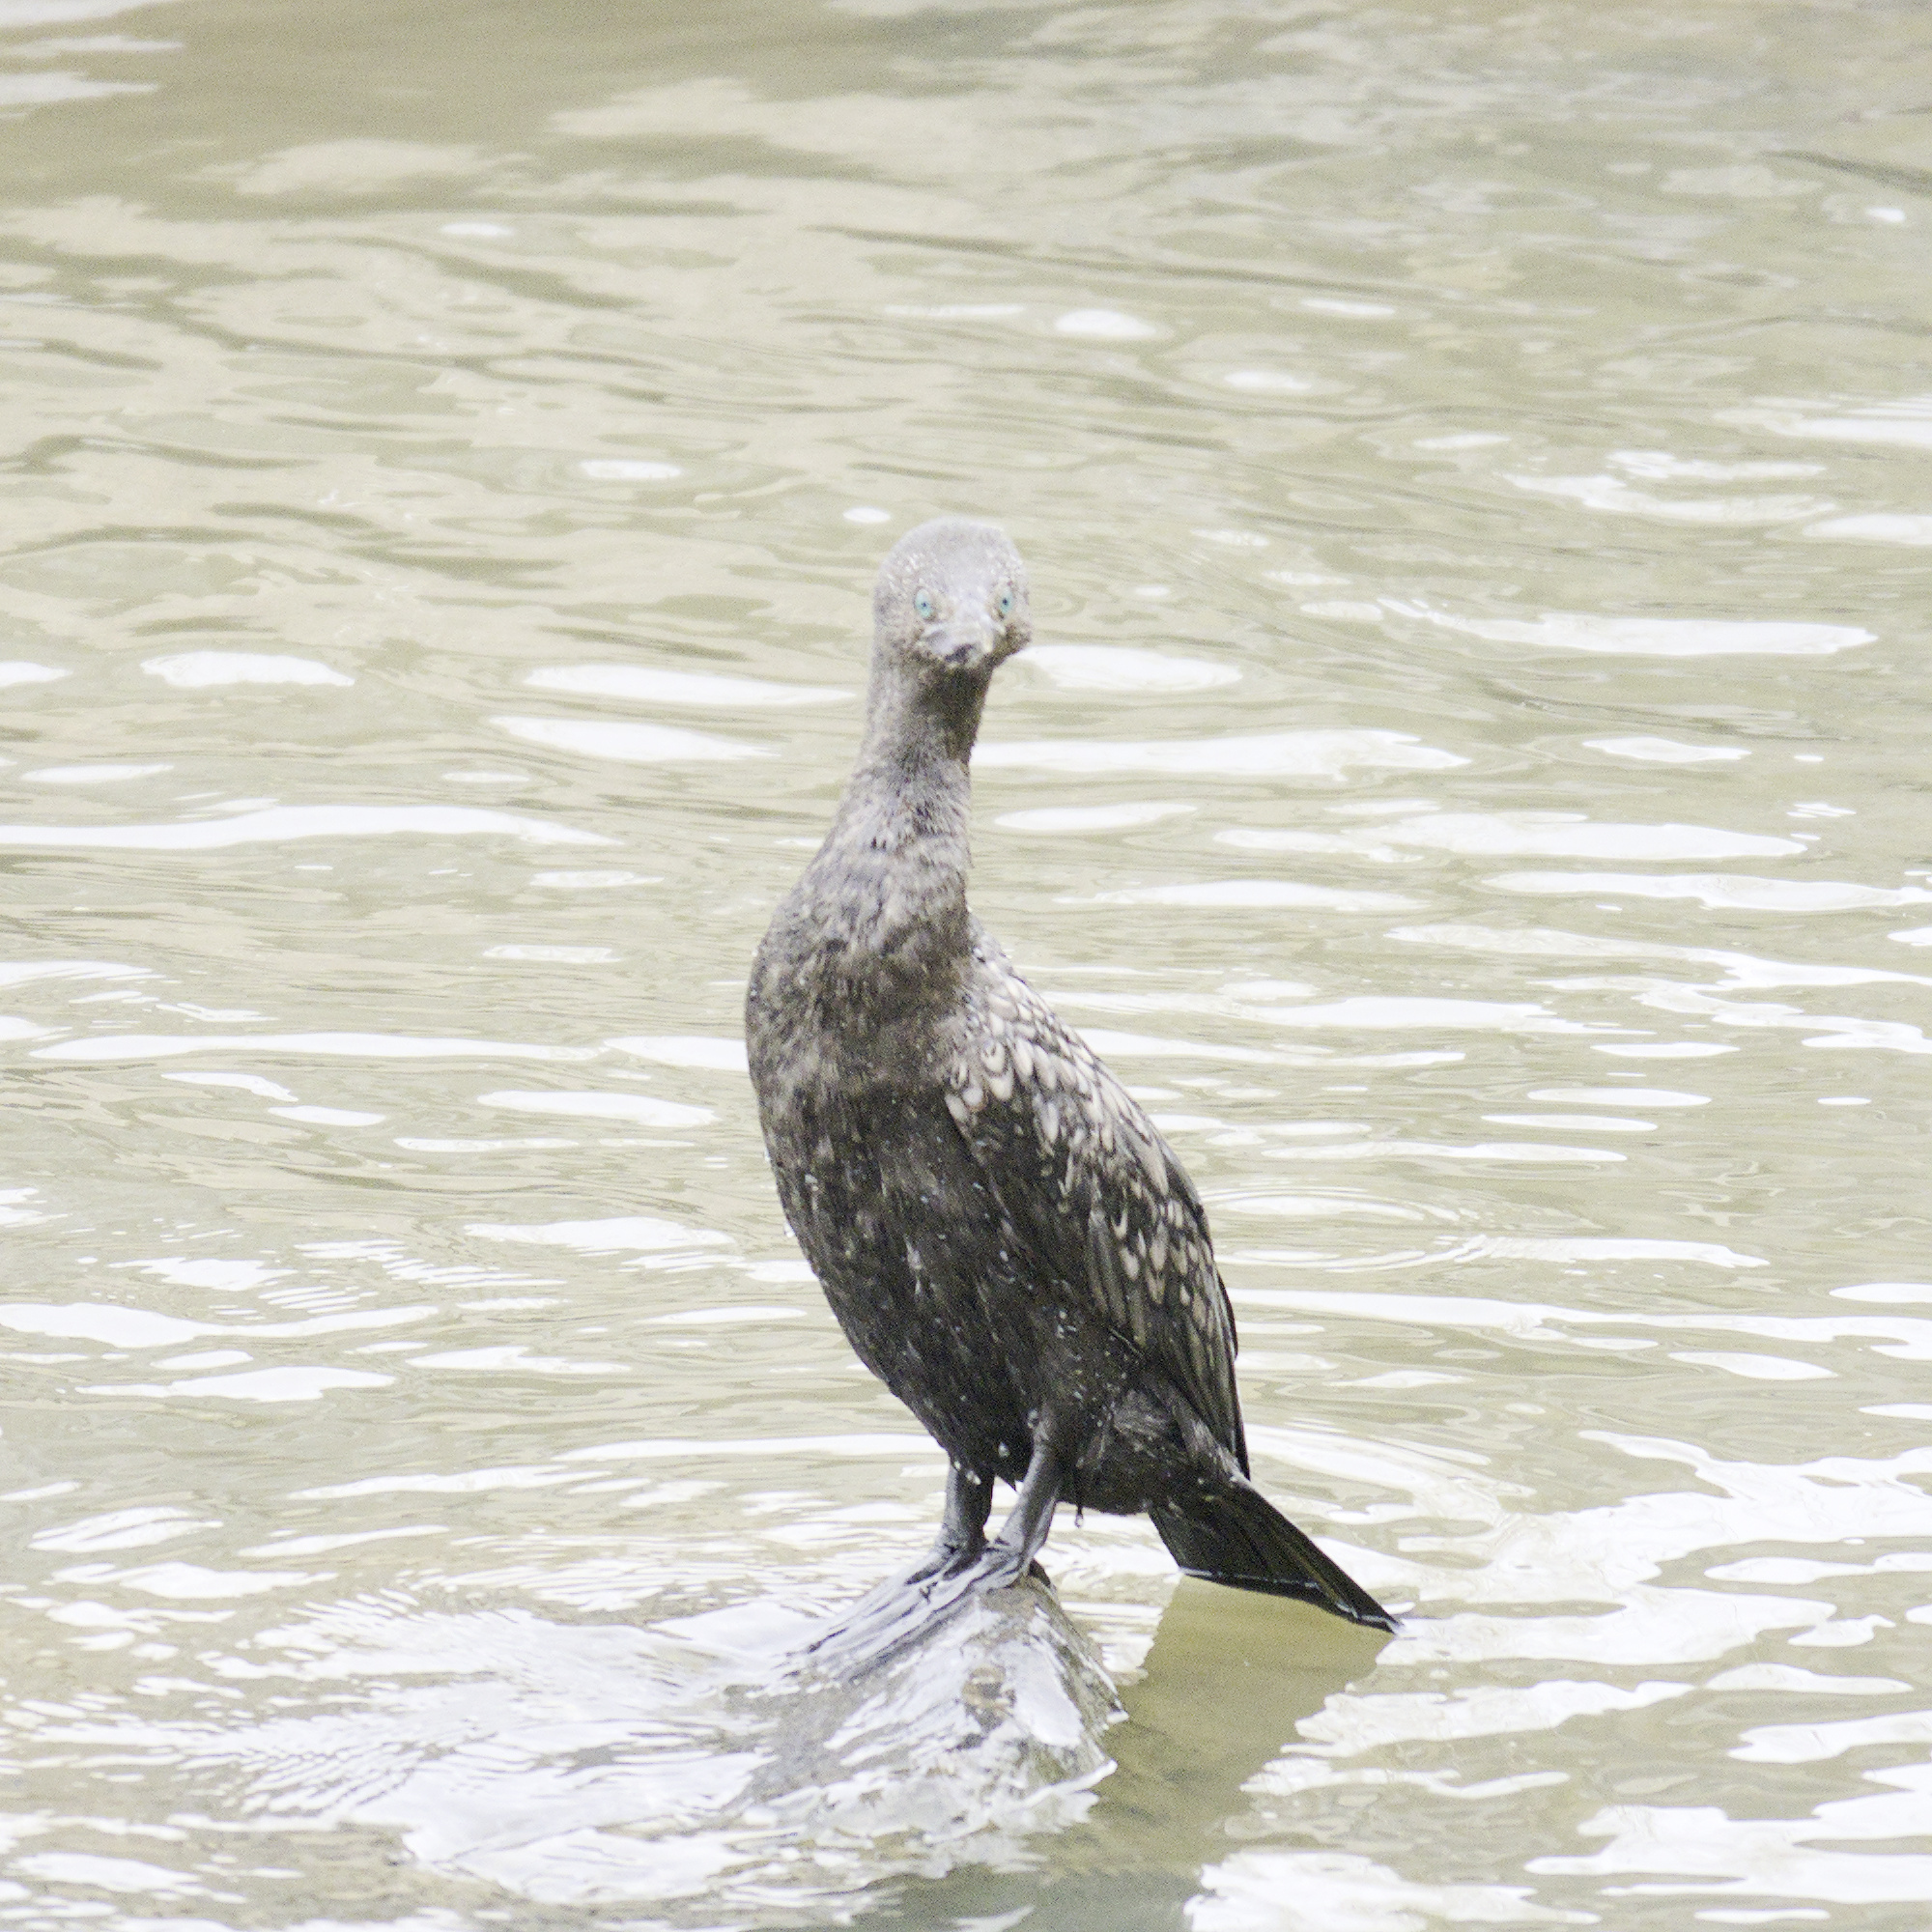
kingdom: Animalia
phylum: Chordata
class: Aves
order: Suliformes
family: Phalacrocoracidae
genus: Phalacrocorax
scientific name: Phalacrocorax sulcirostris
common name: Little black cormorant
